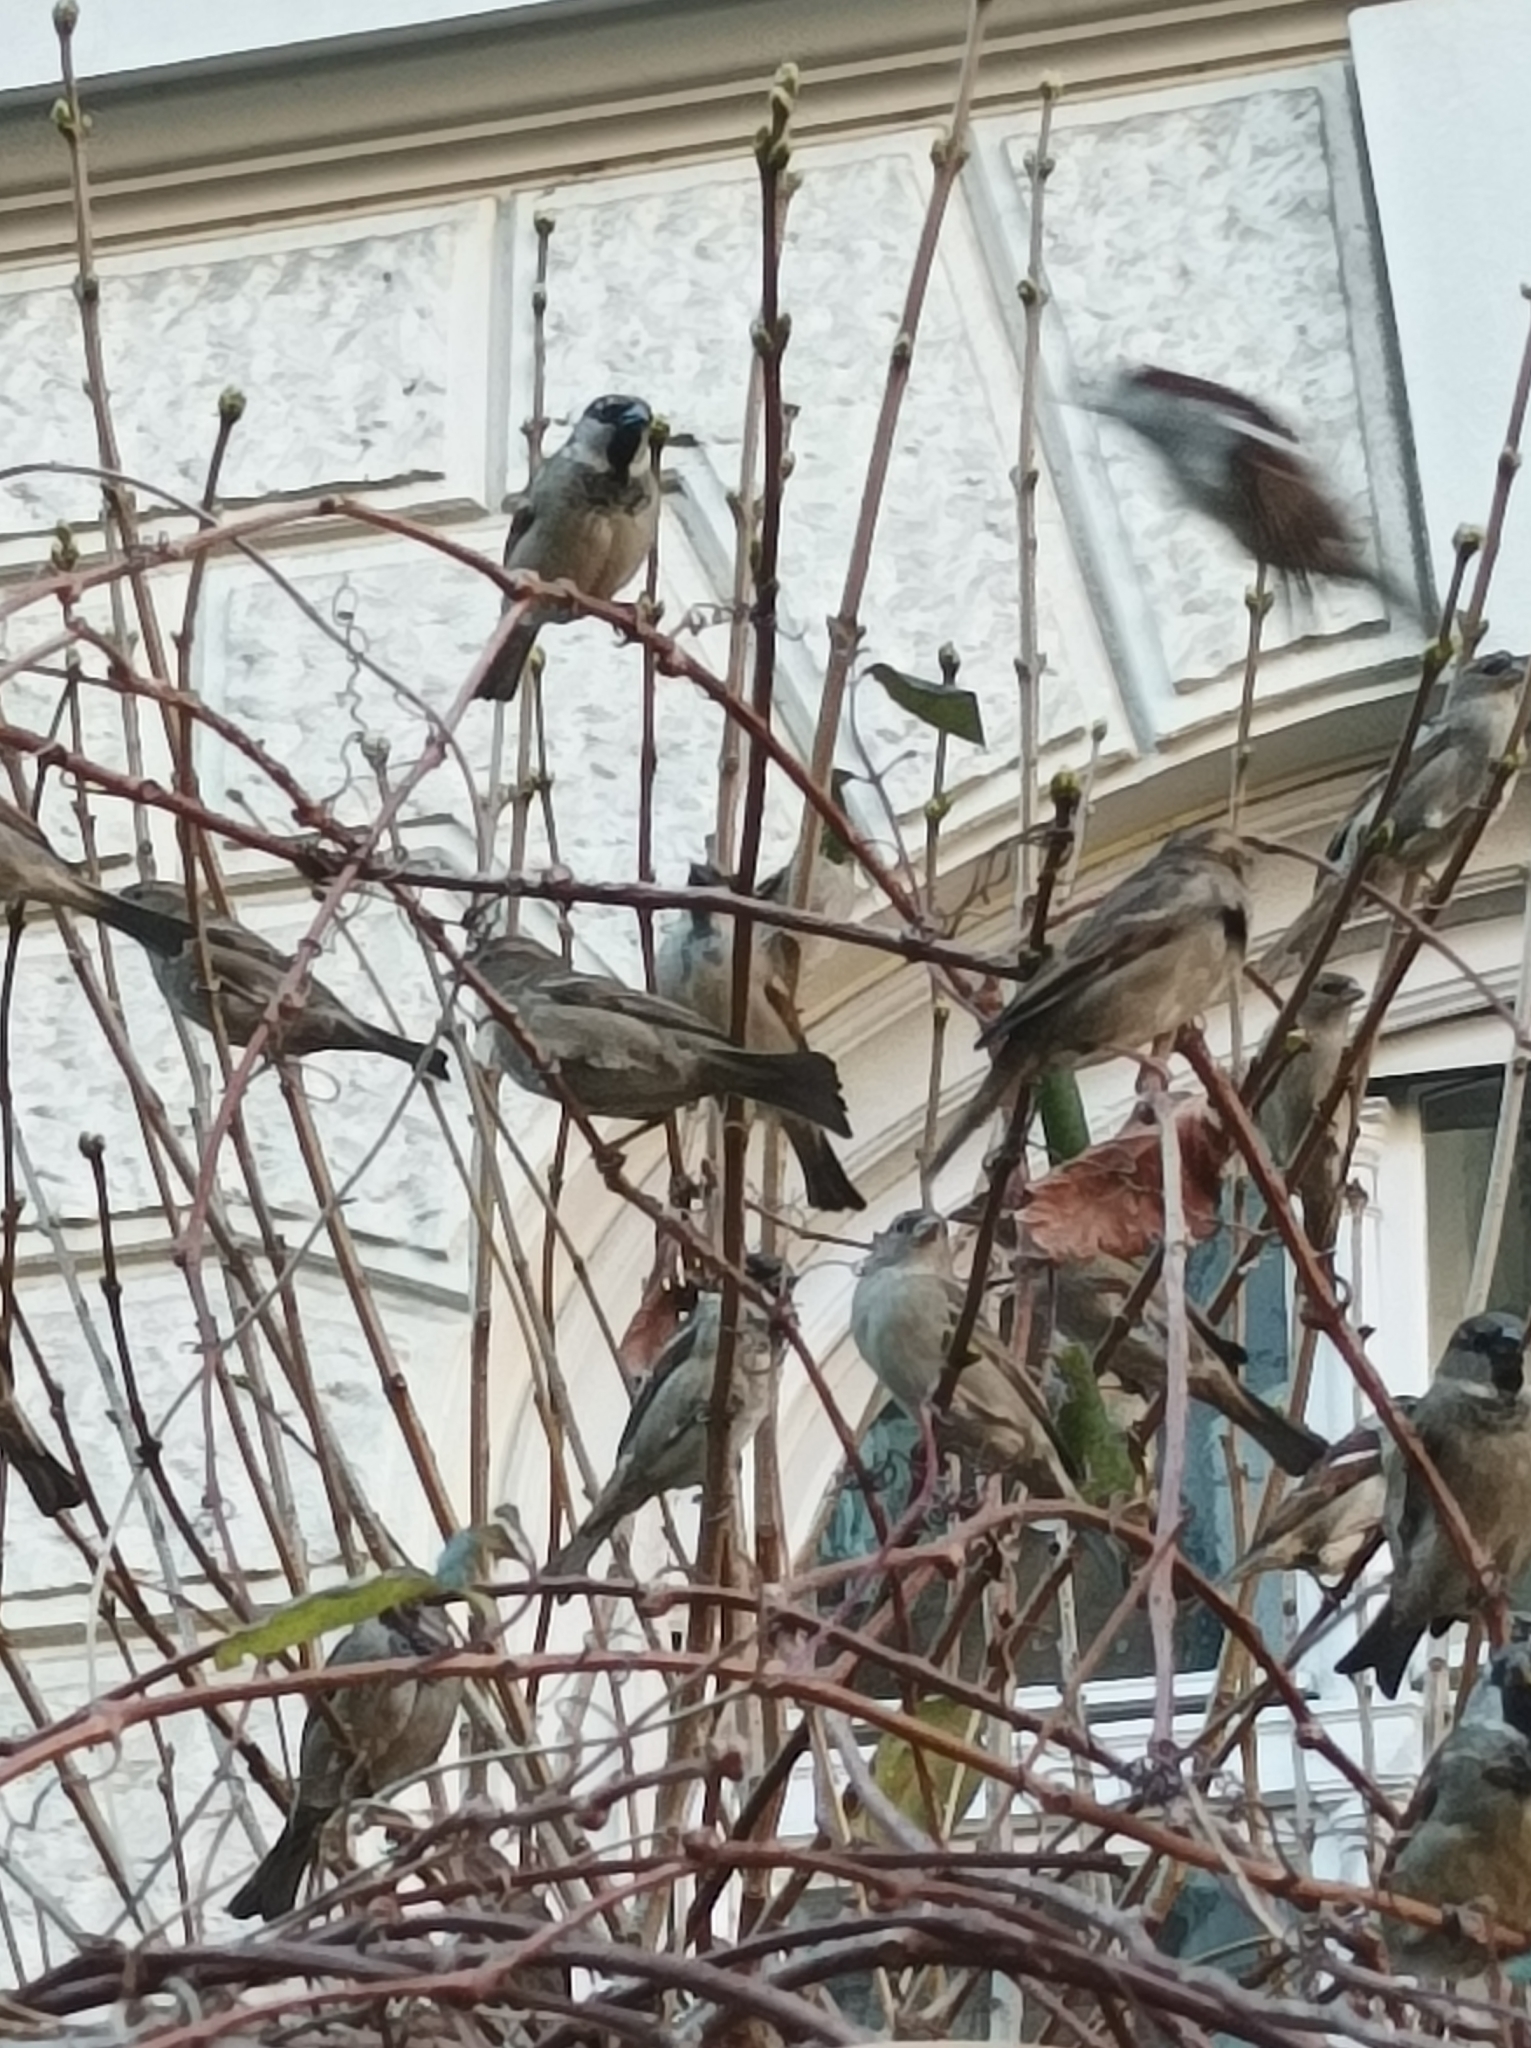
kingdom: Animalia
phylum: Chordata
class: Aves
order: Passeriformes
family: Passeridae
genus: Passer
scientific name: Passer domesticus
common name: House sparrow
